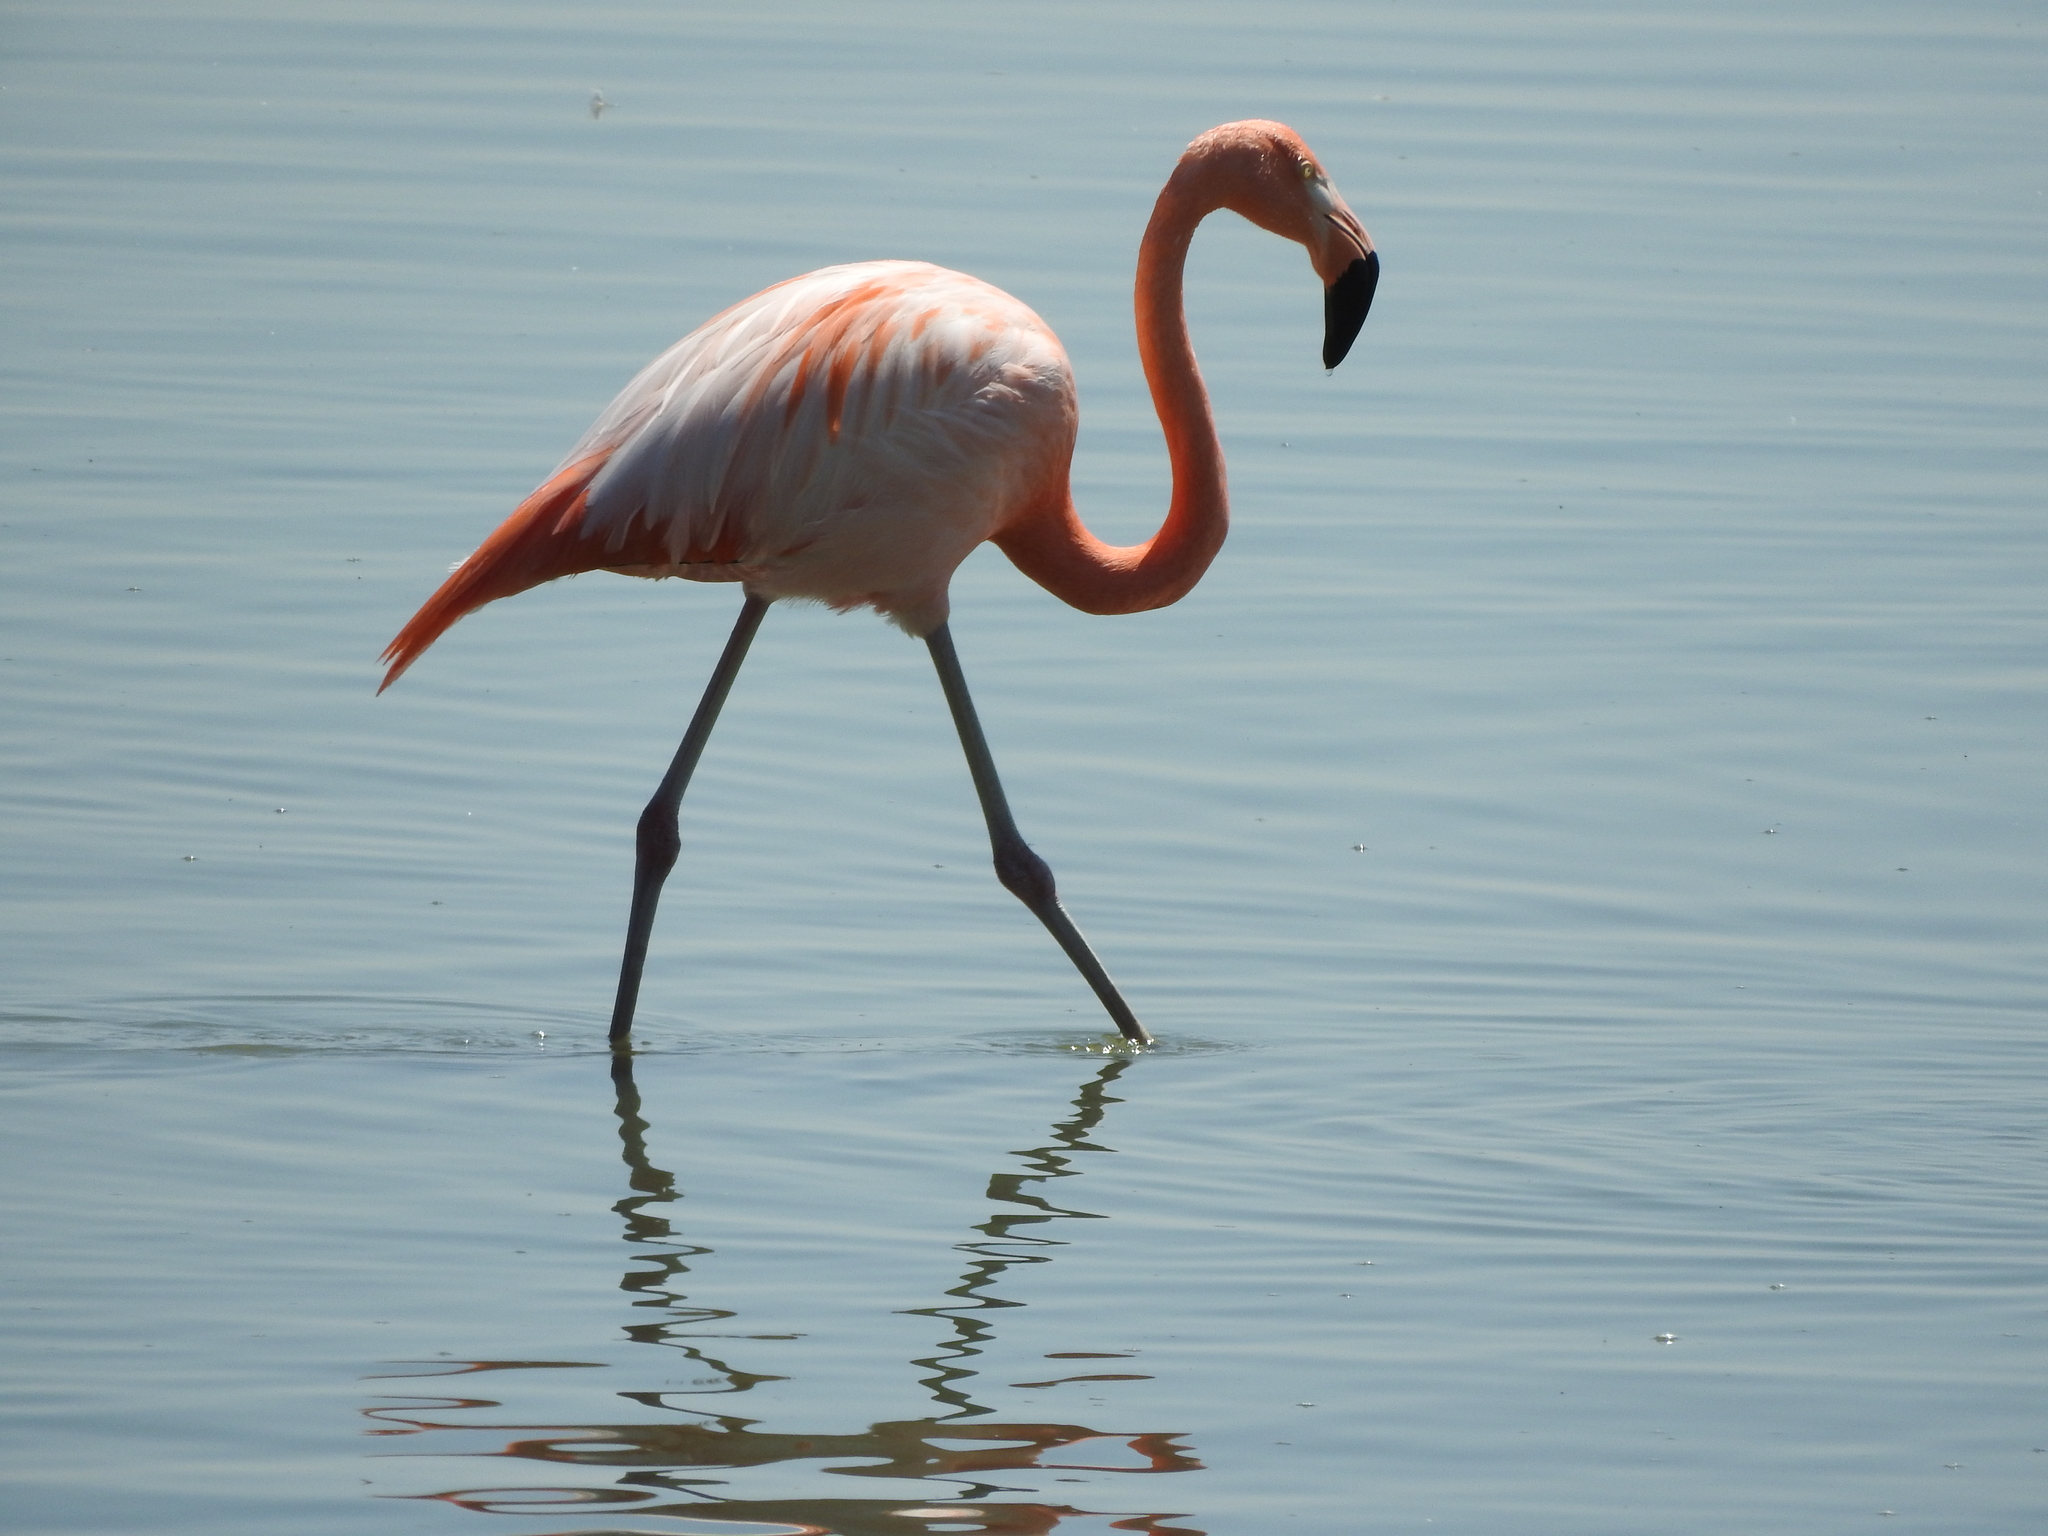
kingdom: Animalia
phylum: Chordata
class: Aves
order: Phoenicopteriformes
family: Phoenicopteridae
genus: Phoenicopterus
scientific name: Phoenicopterus chilensis
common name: Chilean flamingo
